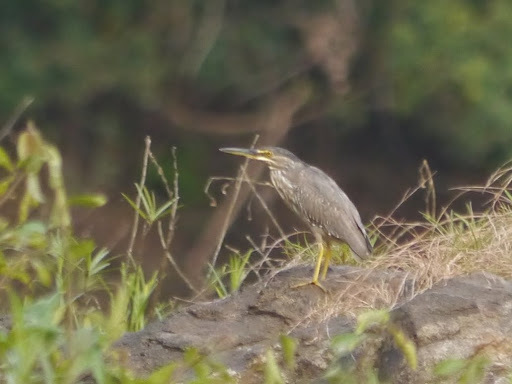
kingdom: Animalia
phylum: Chordata
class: Aves
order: Pelecaniformes
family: Ardeidae
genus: Butorides
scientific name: Butorides striata
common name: Striated heron
